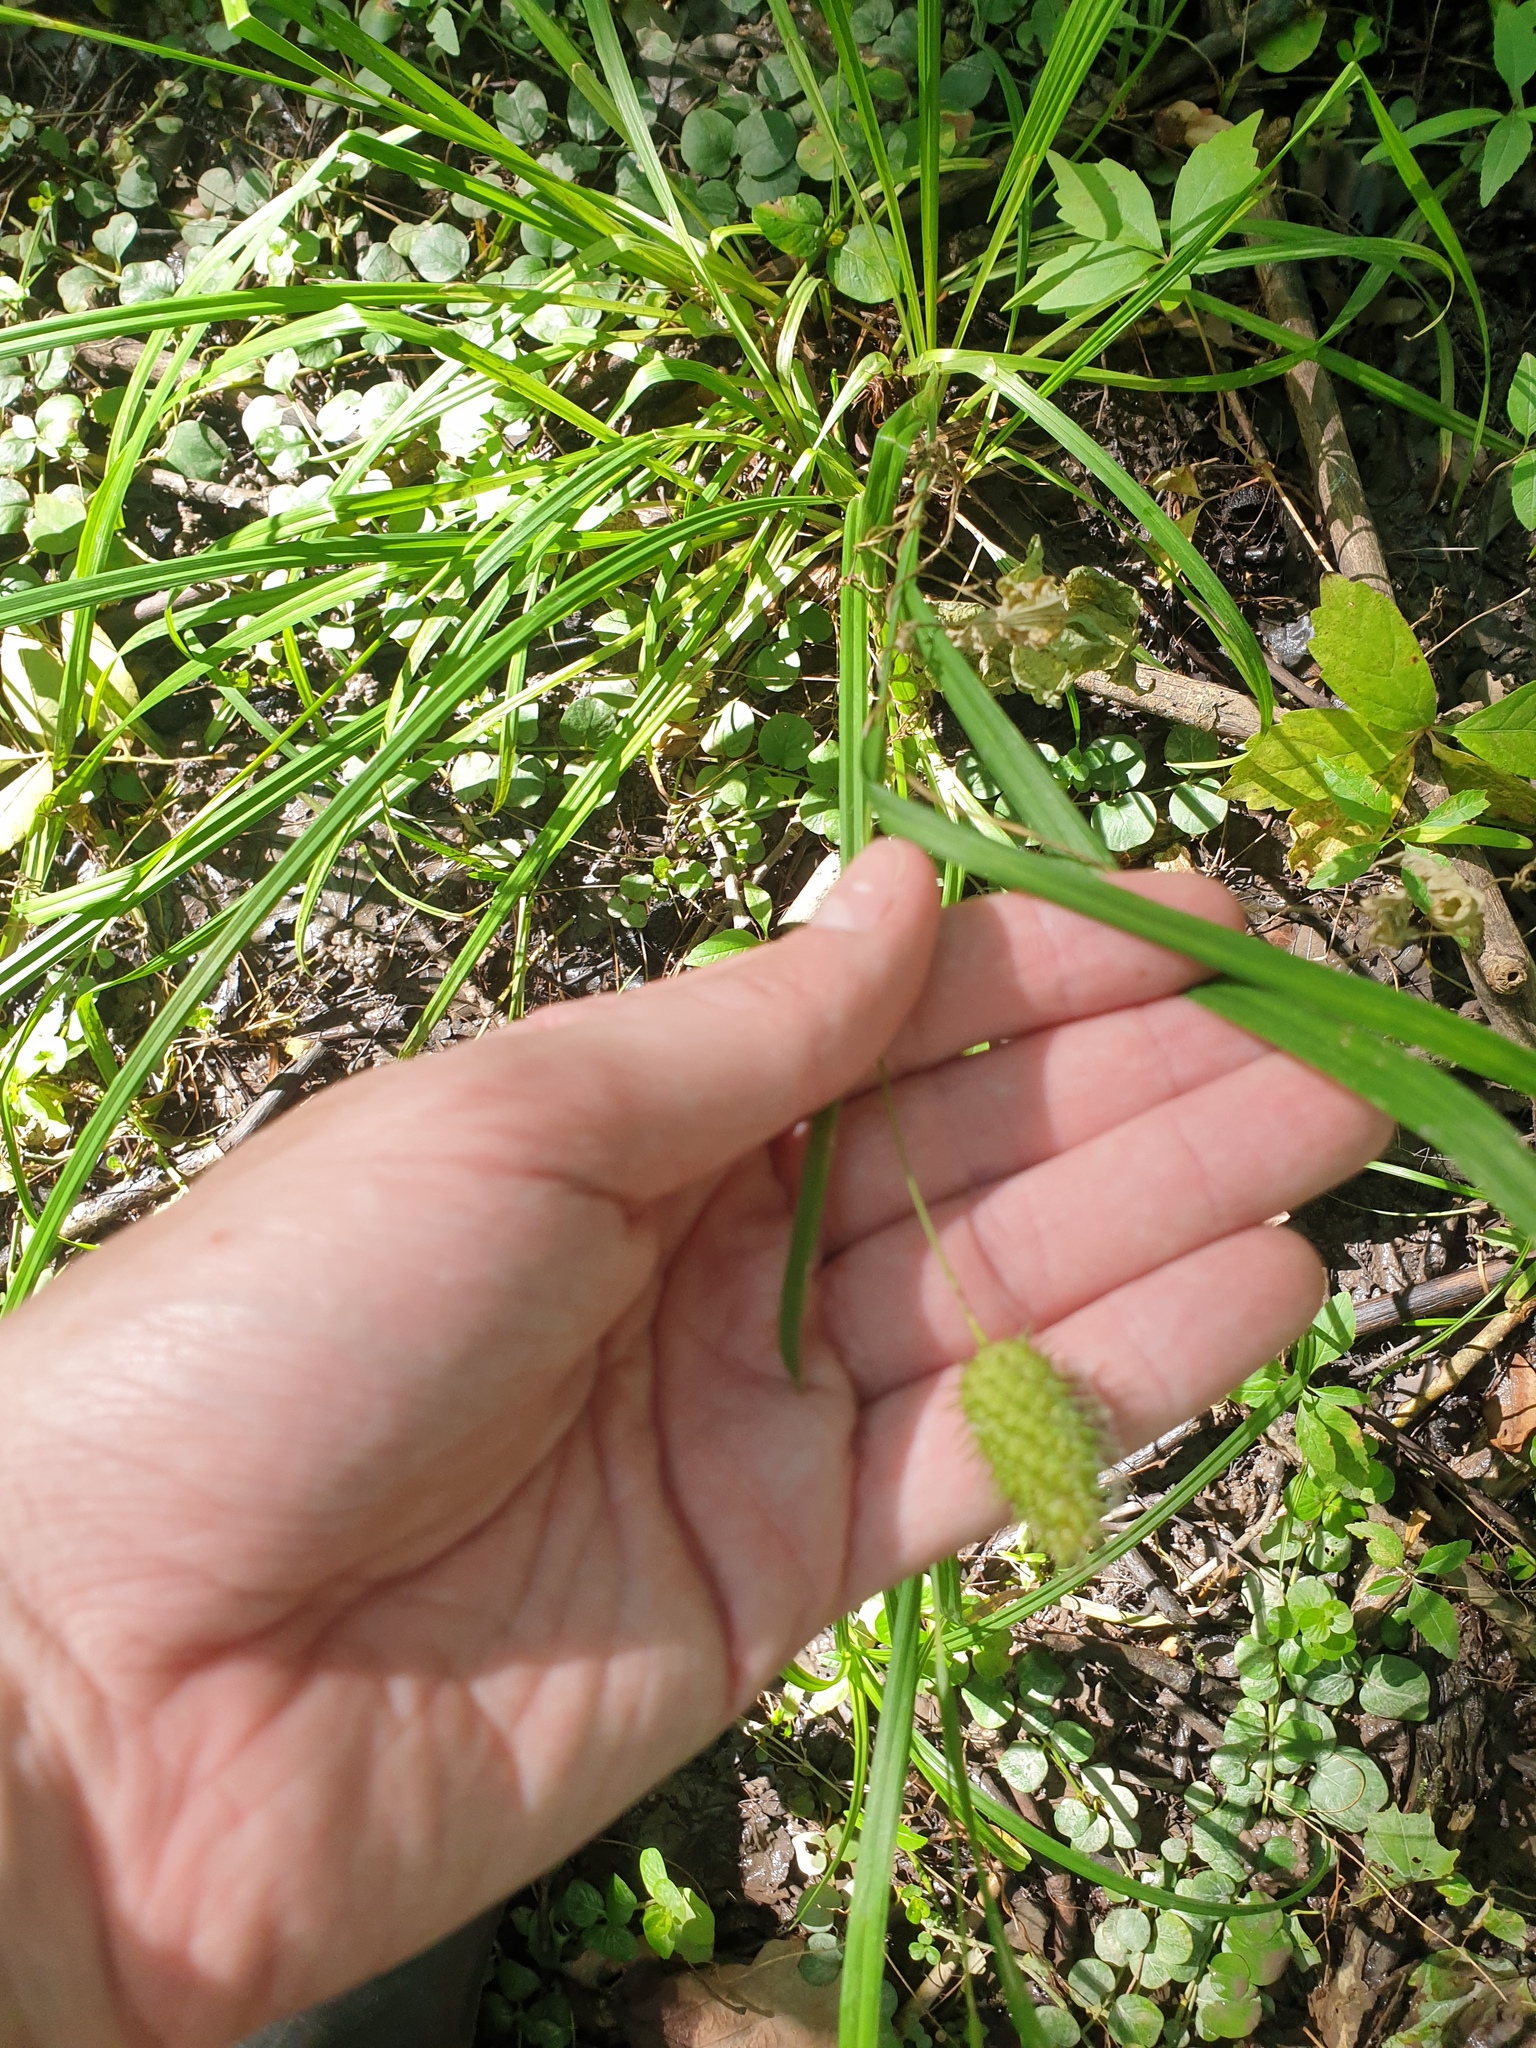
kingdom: Plantae
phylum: Tracheophyta
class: Liliopsida
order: Poales
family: Cyperaceae
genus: Carex
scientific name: Carex typhina
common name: Cattail sedge
